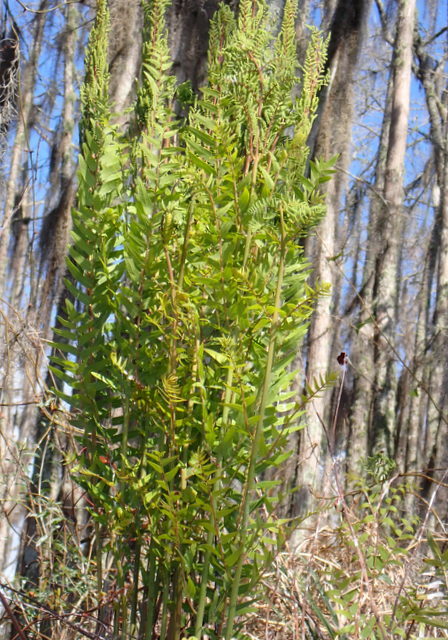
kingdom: Plantae
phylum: Tracheophyta
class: Polypodiopsida
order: Osmundales
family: Osmundaceae
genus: Osmunda
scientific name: Osmunda spectabilis
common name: American royal fern
